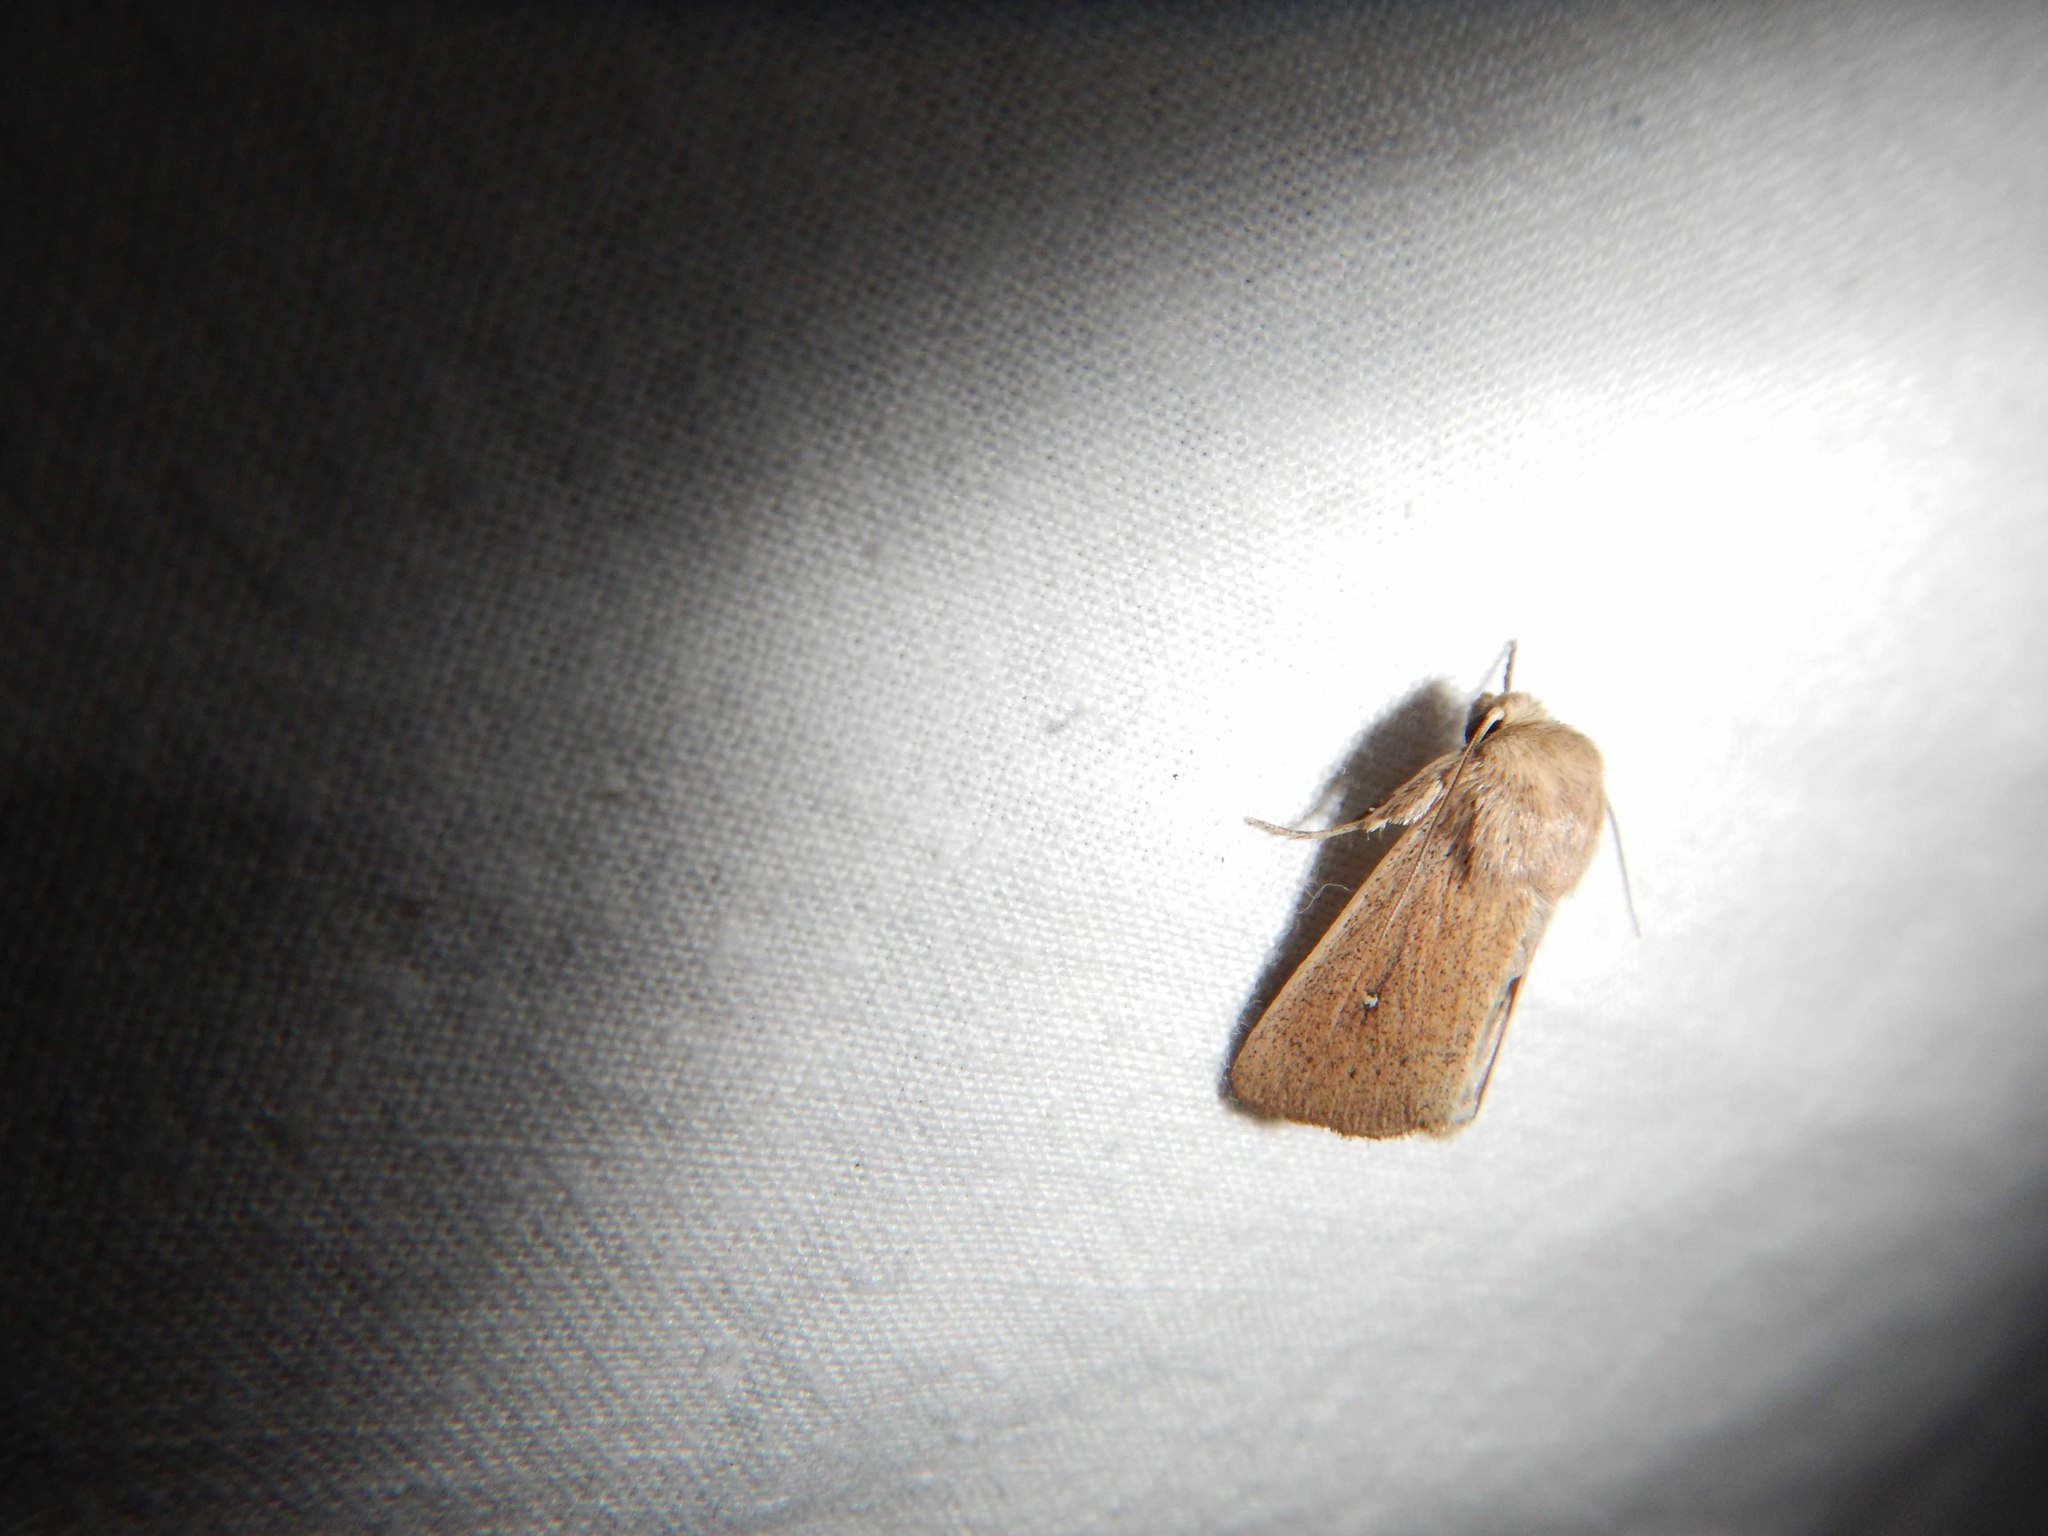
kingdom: Animalia
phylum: Arthropoda
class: Insecta
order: Lepidoptera
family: Noctuidae
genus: Mythimna
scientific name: Mythimna sicula
